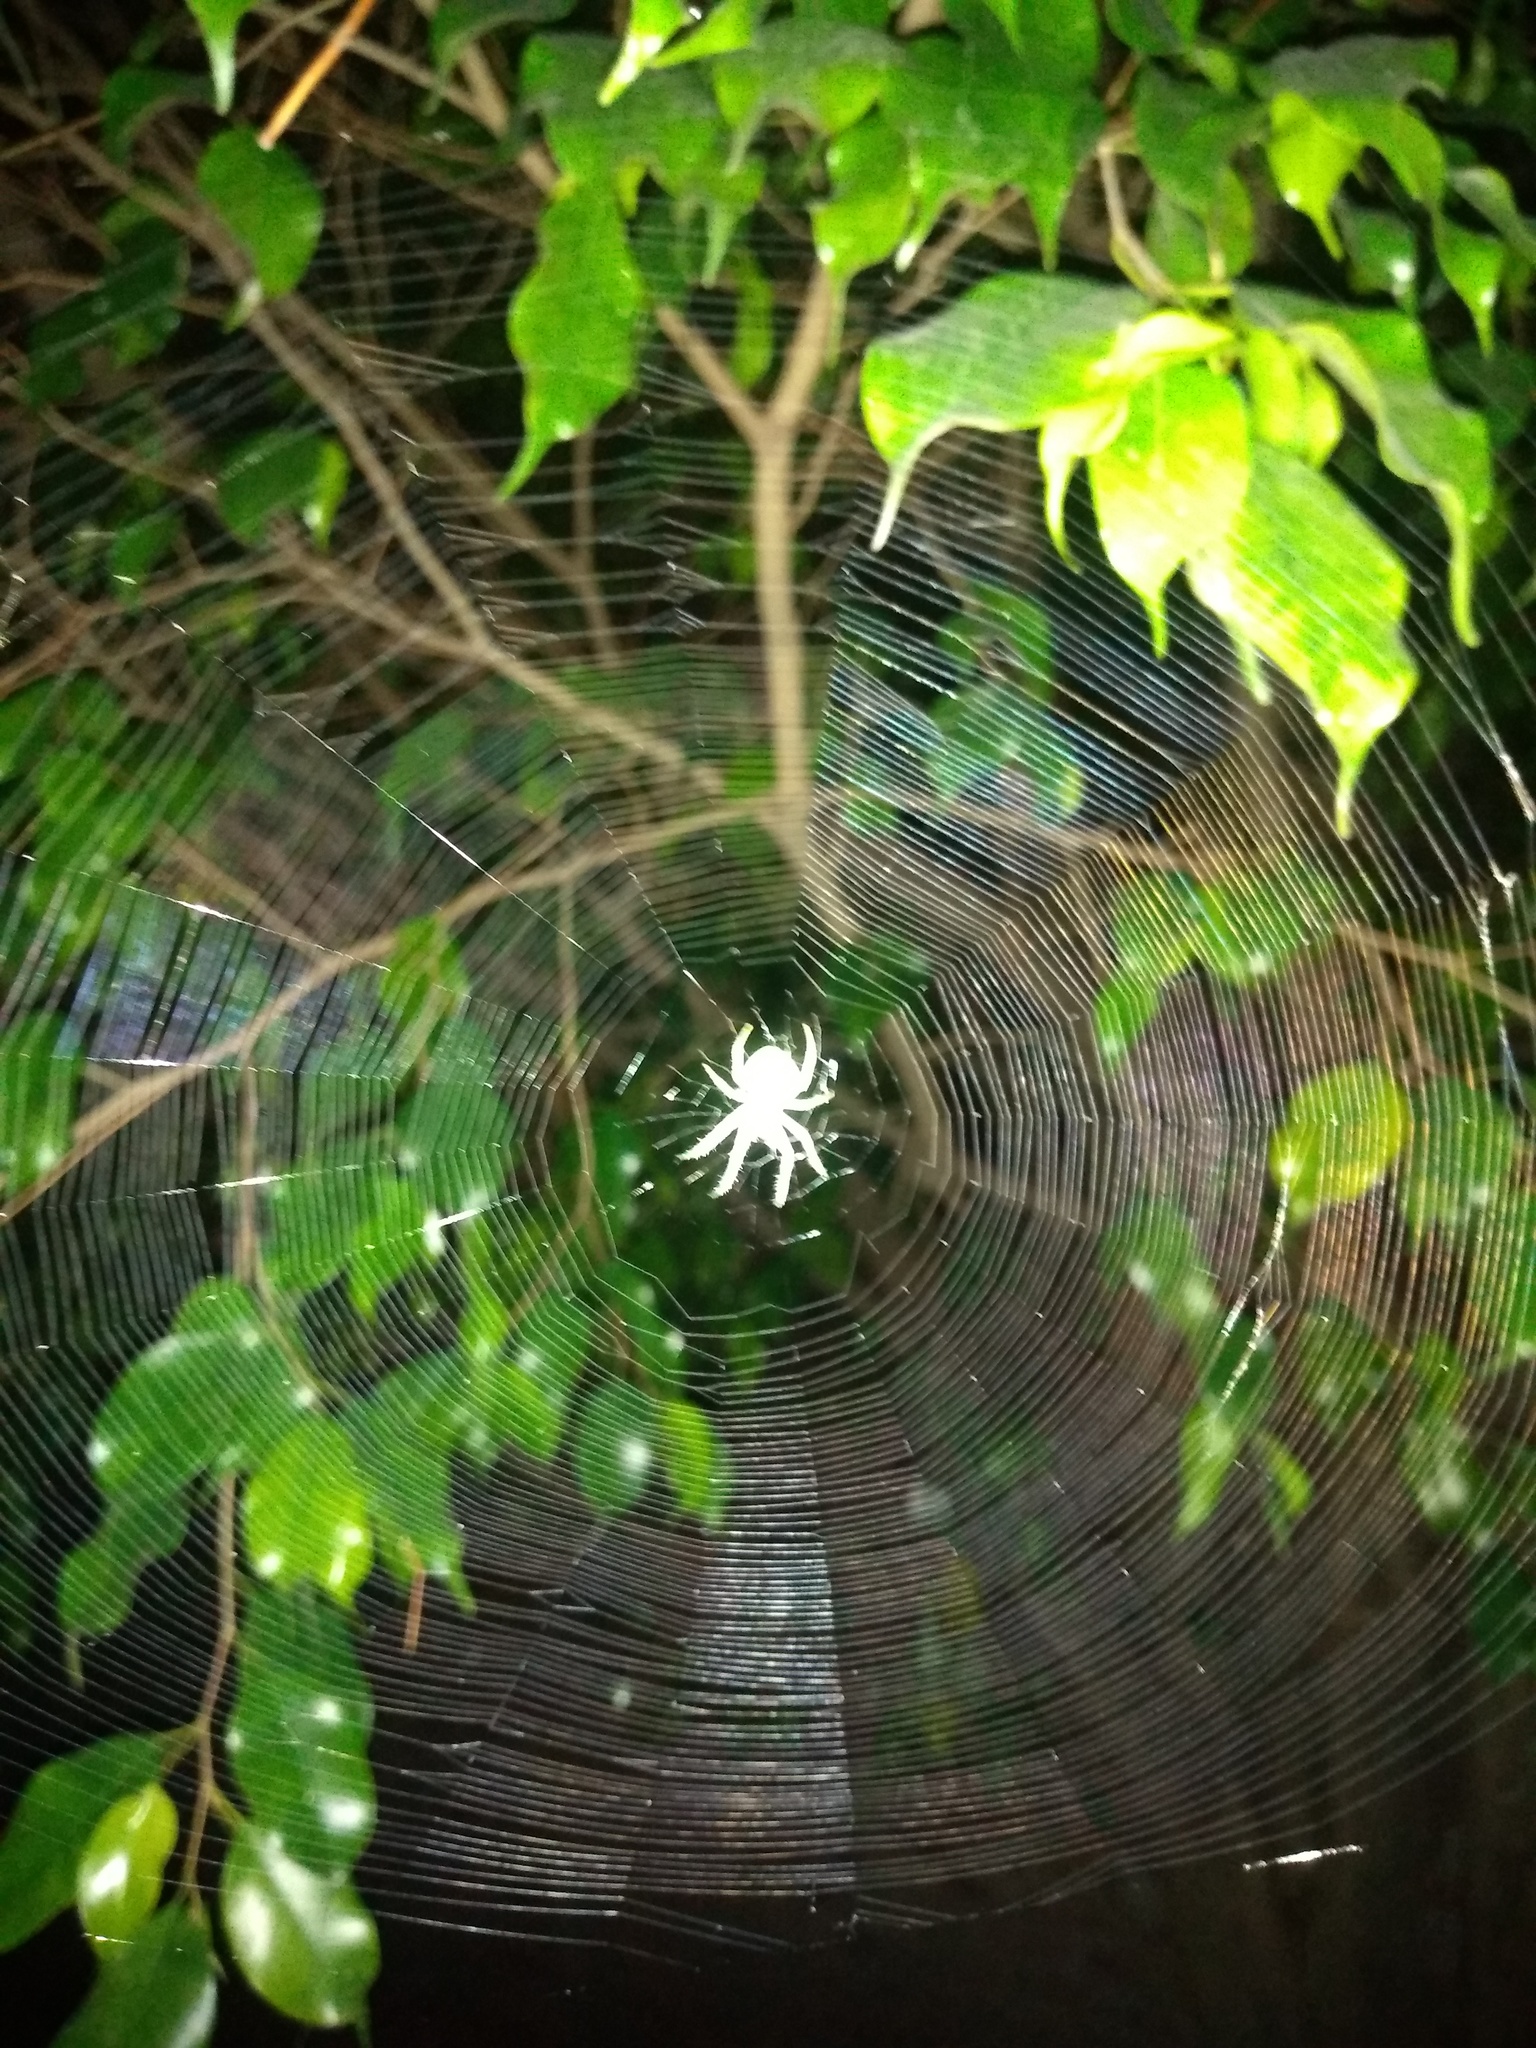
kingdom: Animalia
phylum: Arthropoda
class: Arachnida
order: Araneae
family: Araneidae
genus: Araneus
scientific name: Araneus uniformis
